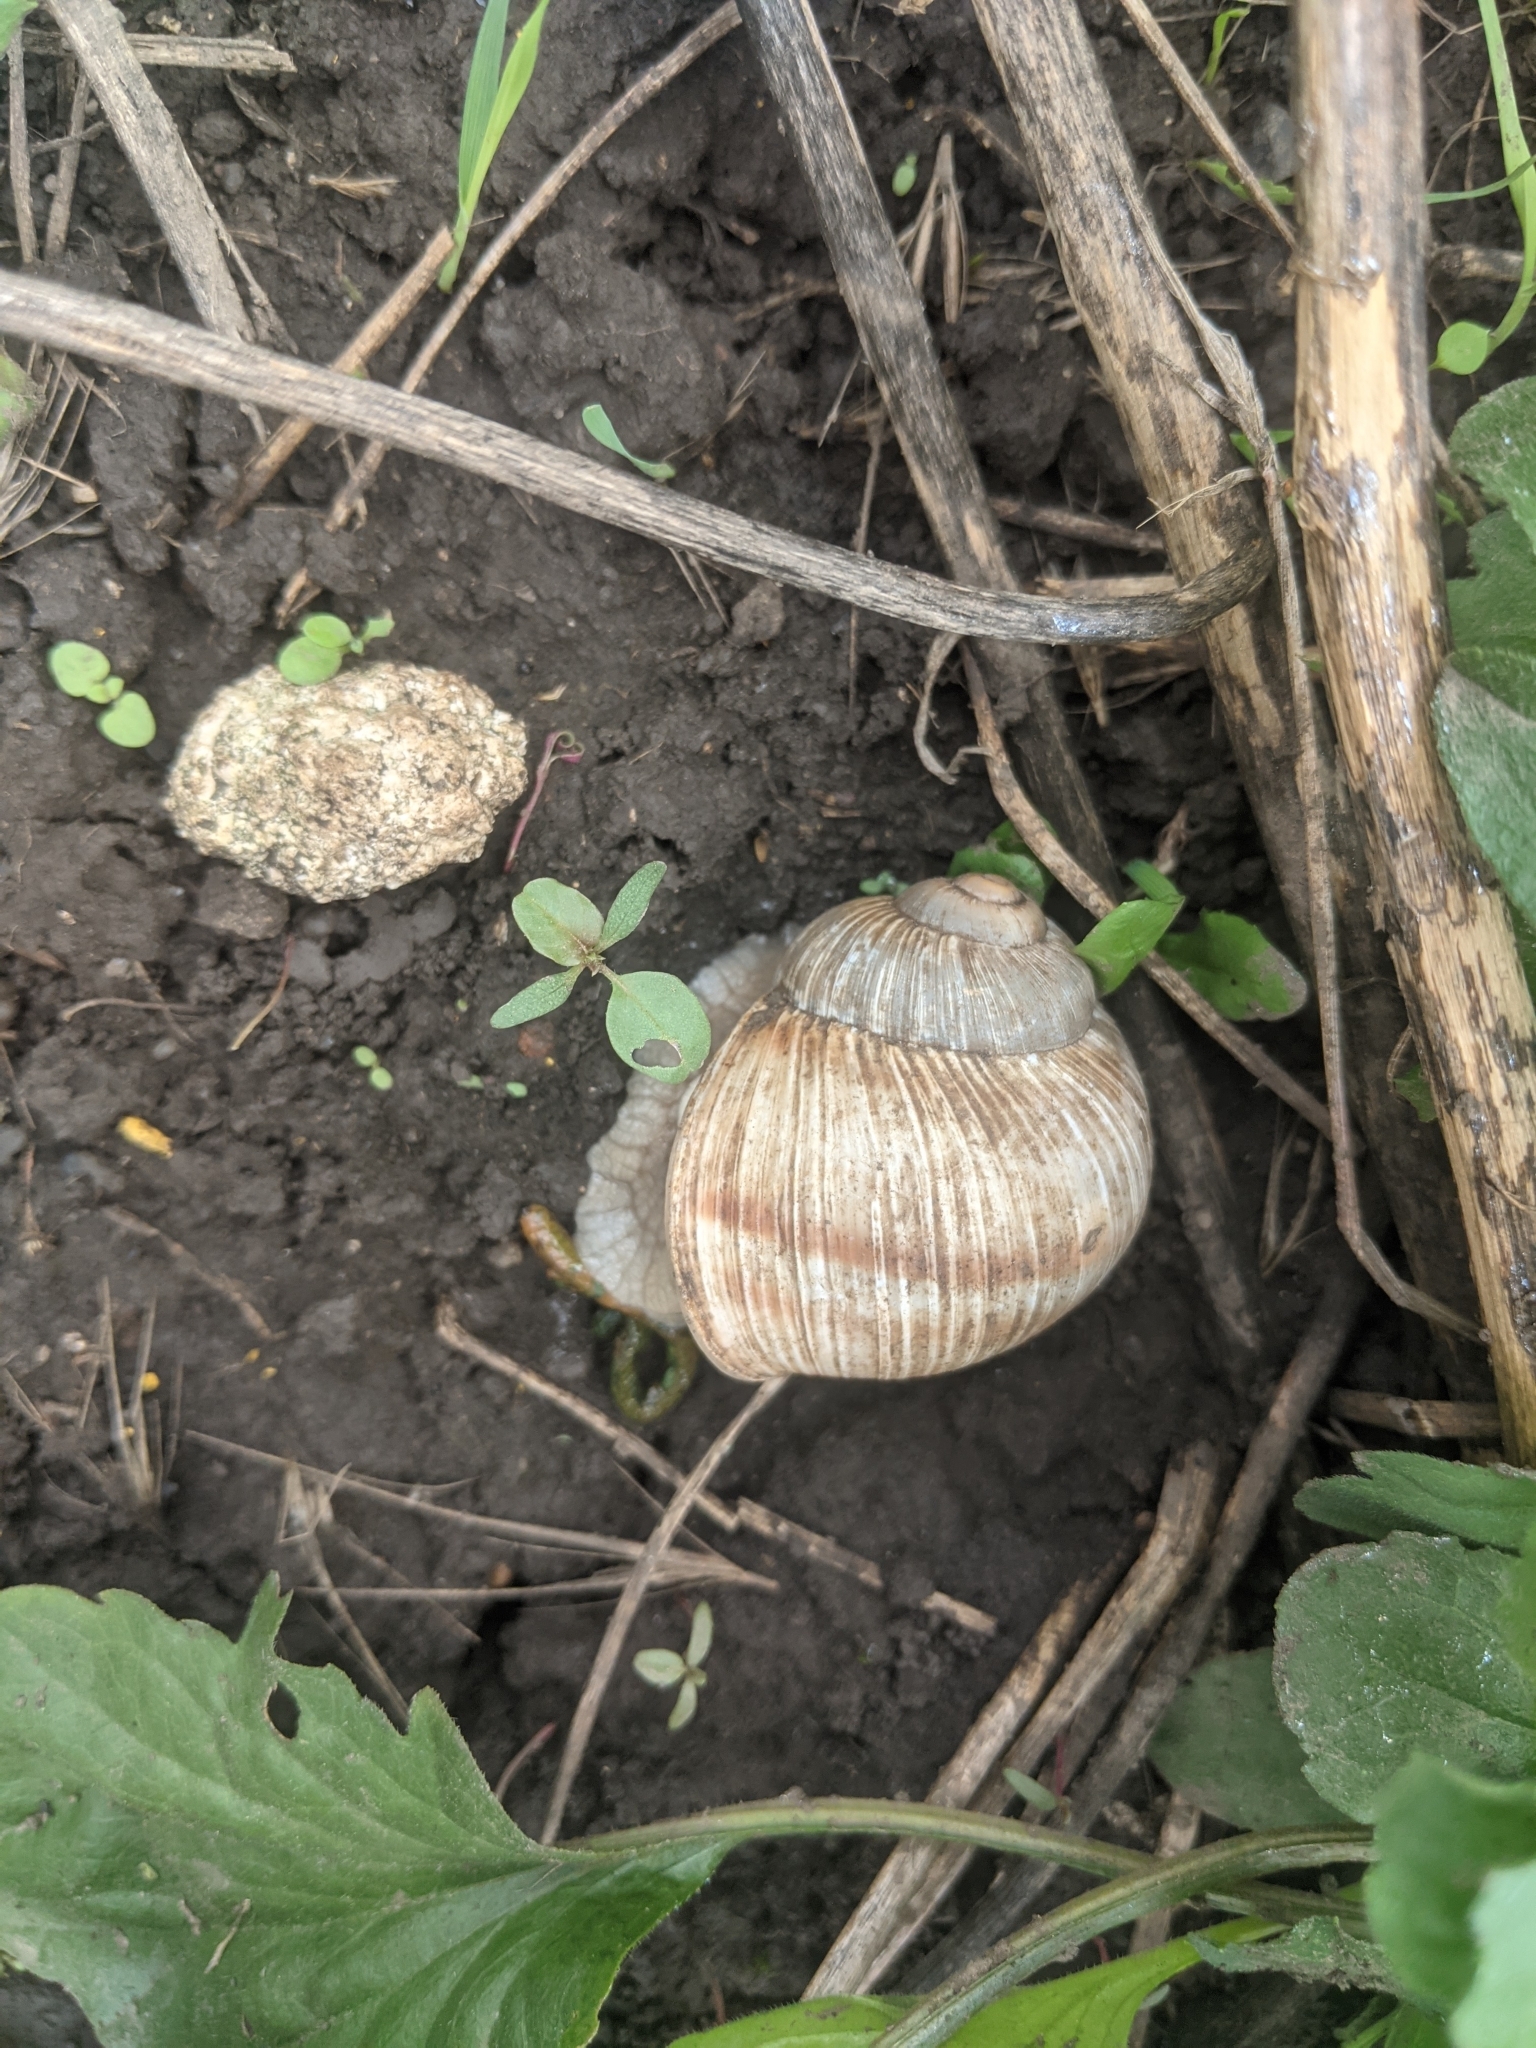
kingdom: Animalia
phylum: Mollusca
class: Gastropoda
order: Stylommatophora
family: Helicidae
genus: Helix
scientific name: Helix pomatia
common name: Roman snail
